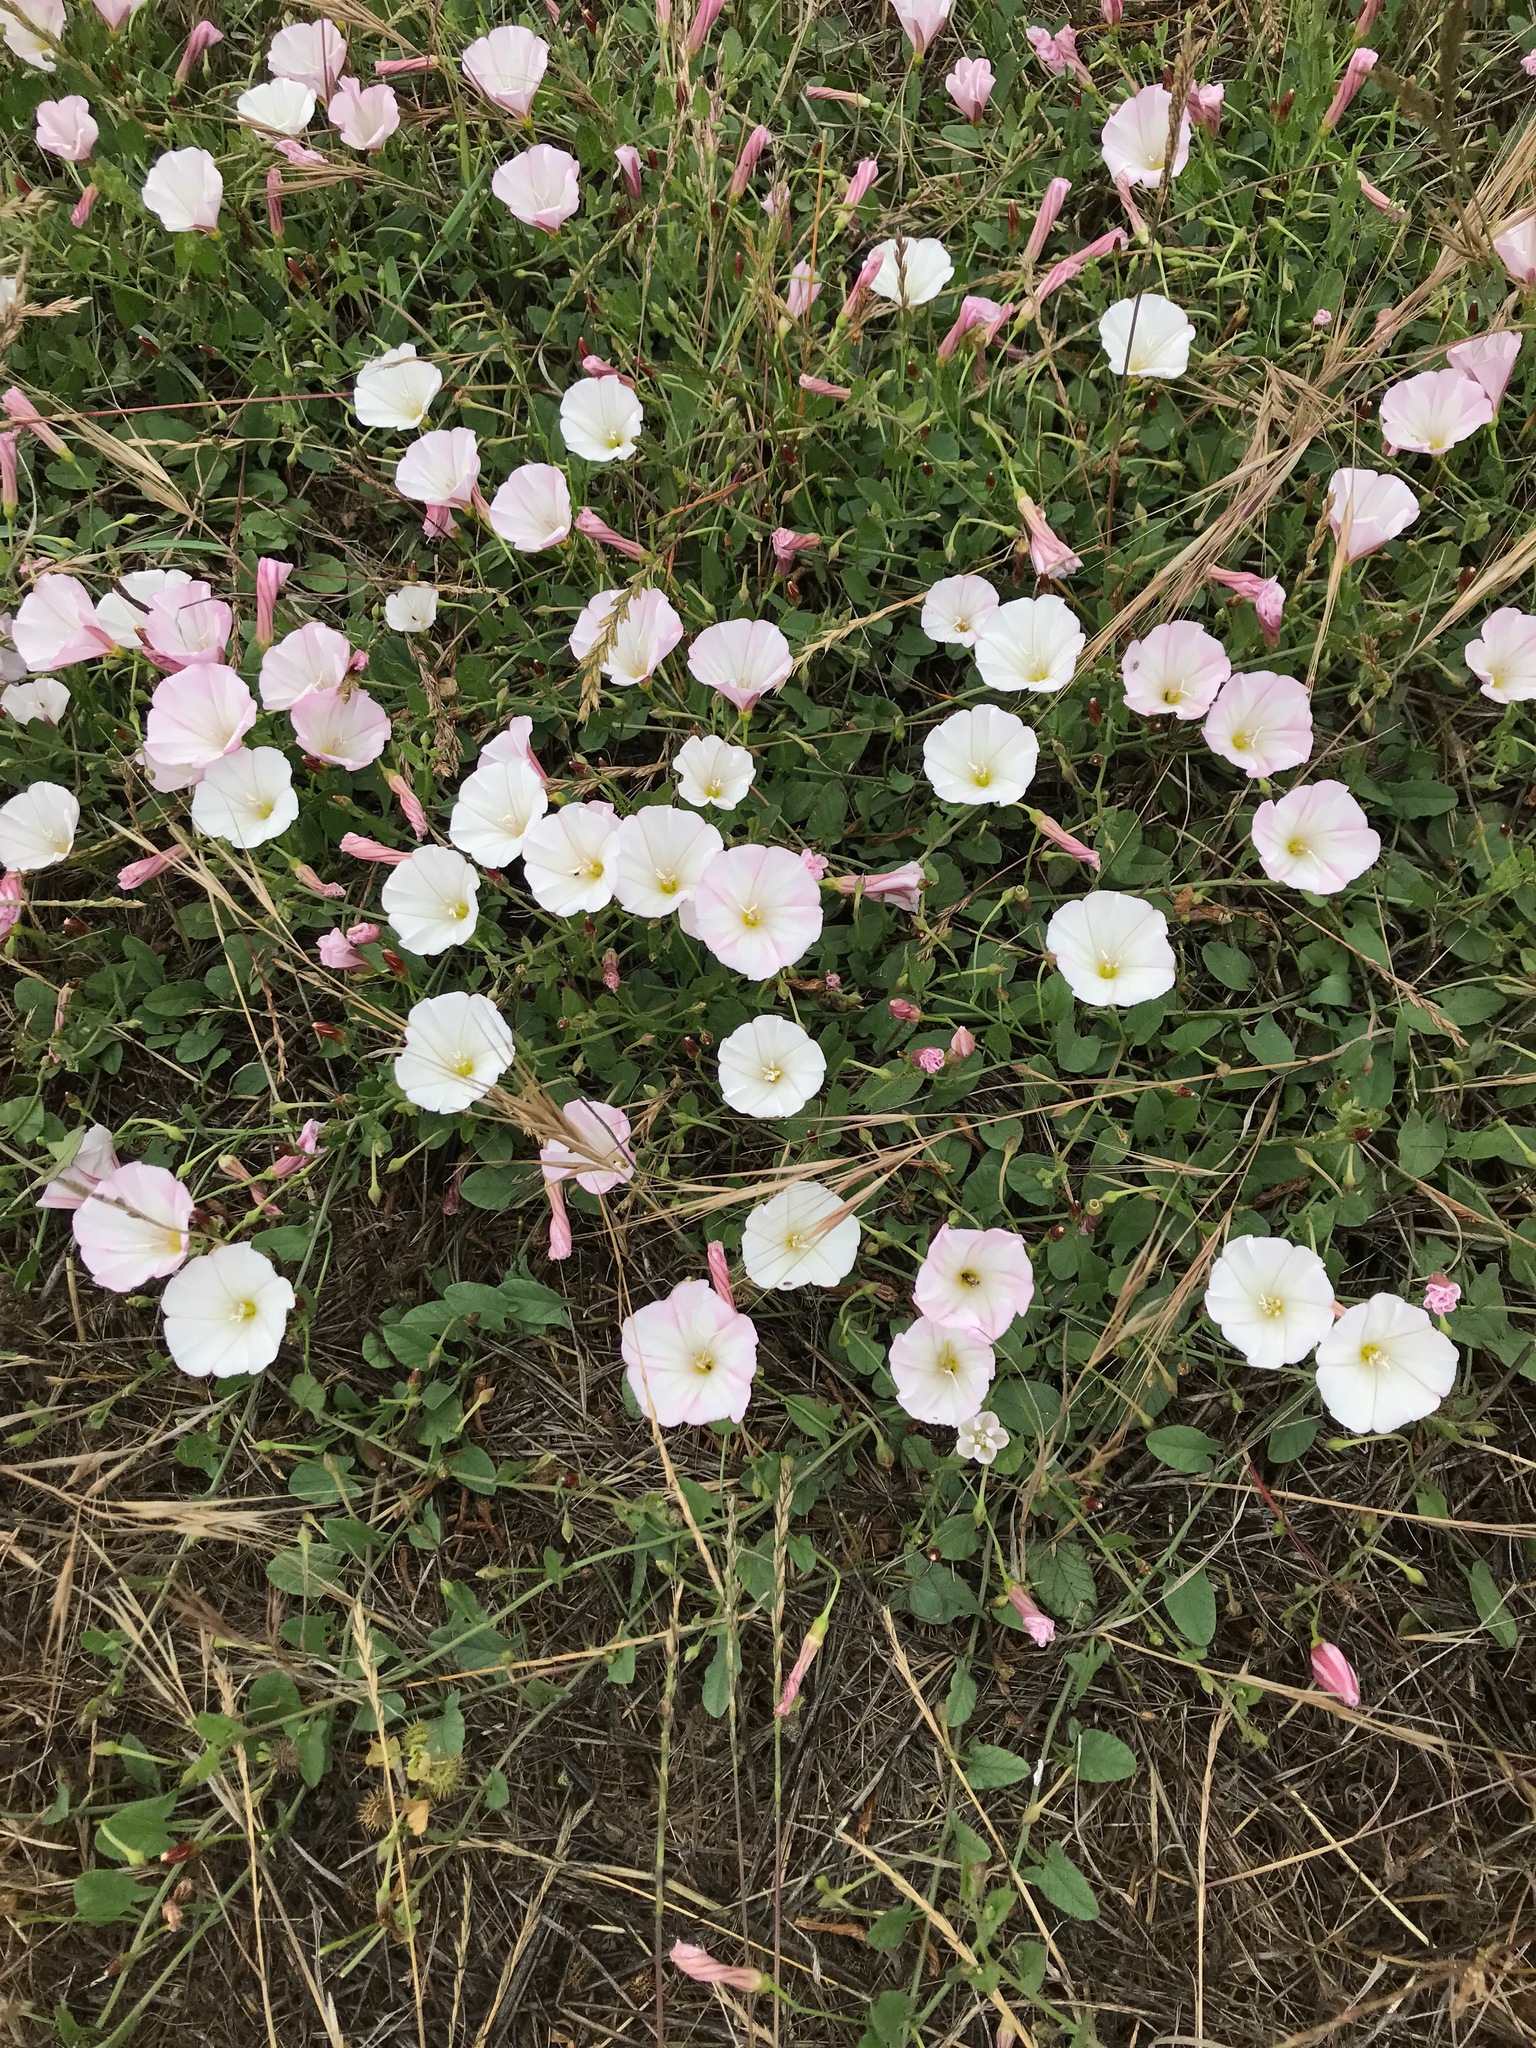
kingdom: Plantae
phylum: Tracheophyta
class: Magnoliopsida
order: Solanales
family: Convolvulaceae
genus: Convolvulus
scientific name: Convolvulus arvensis
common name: Field bindweed
